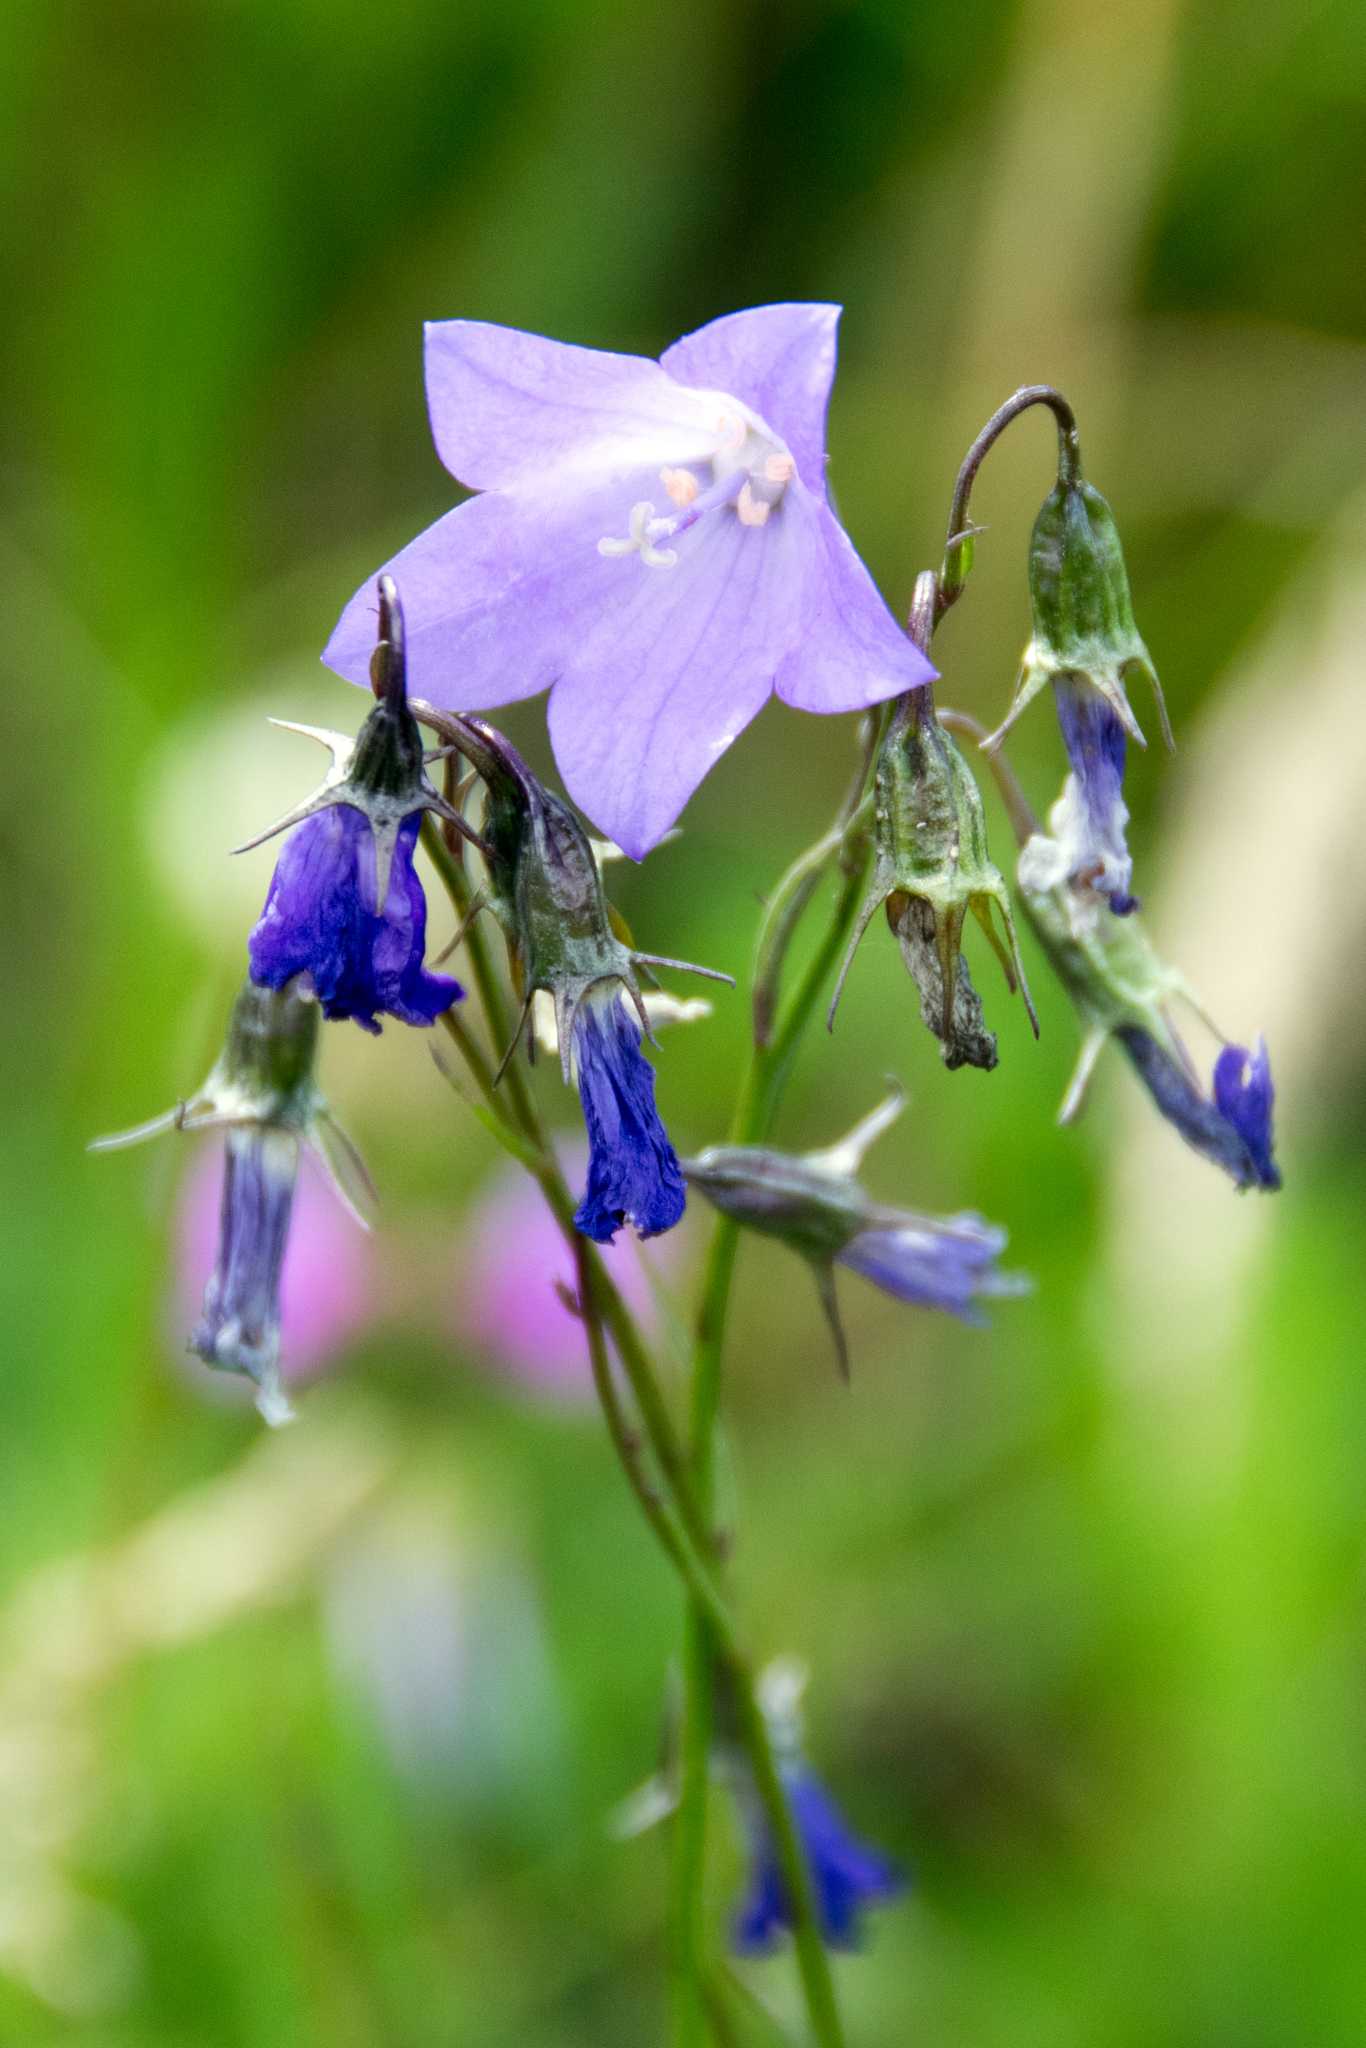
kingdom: Plantae
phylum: Tracheophyta
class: Magnoliopsida
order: Asterales
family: Campanulaceae
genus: Campanula
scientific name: Campanula petiolata
